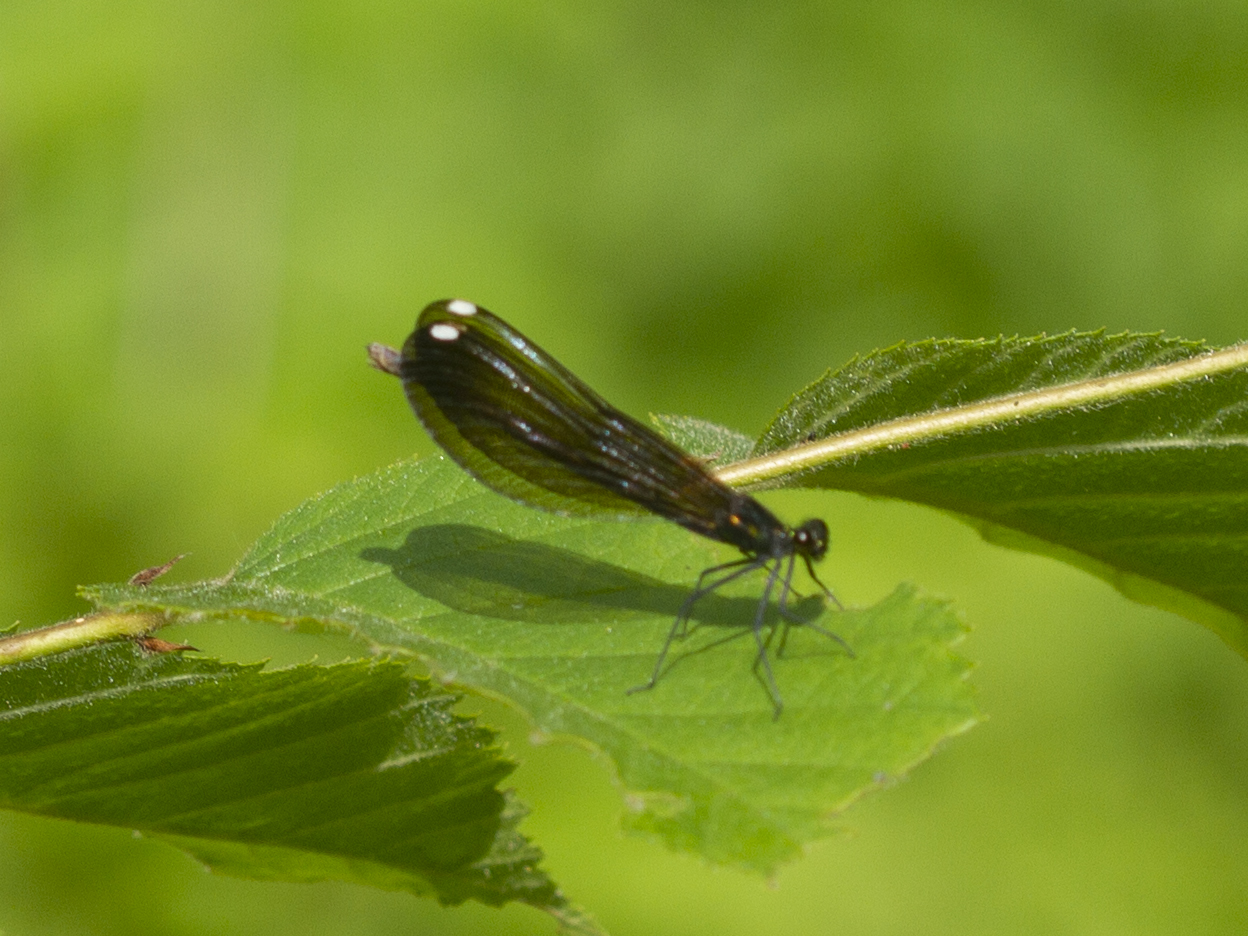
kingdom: Animalia
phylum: Arthropoda
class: Insecta
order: Odonata
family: Calopterygidae
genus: Calopteryx
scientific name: Calopteryx maculata
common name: Ebony jewelwing
